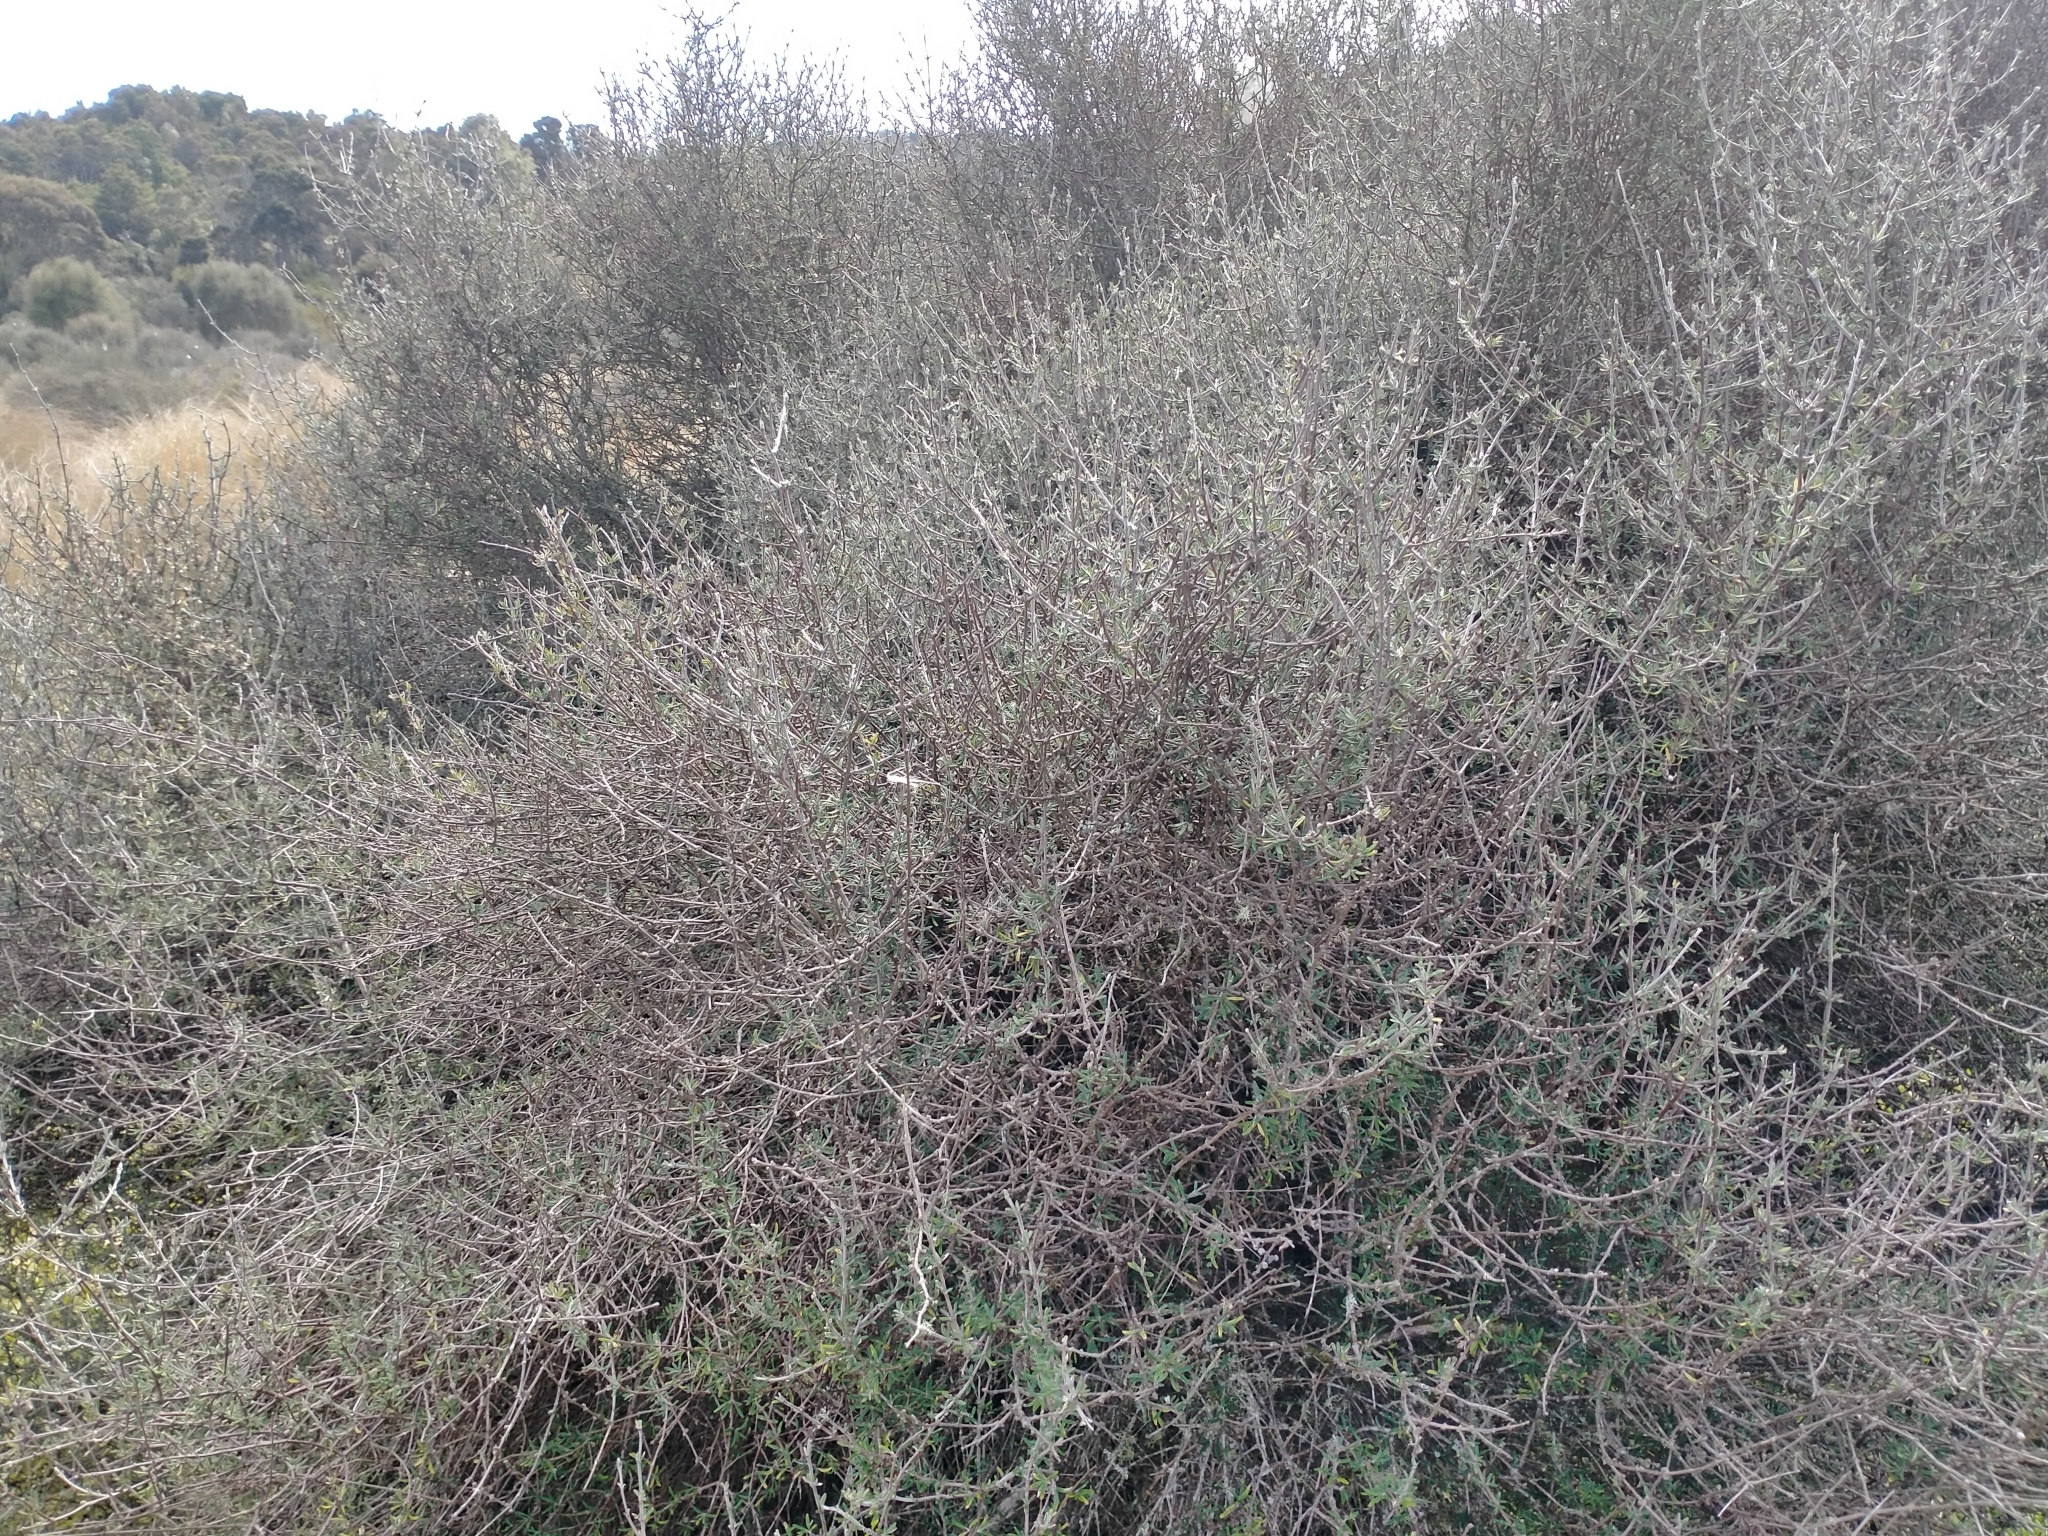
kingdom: Plantae
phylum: Tracheophyta
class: Magnoliopsida
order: Asterales
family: Asteraceae
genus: Olearia
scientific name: Olearia bullata
